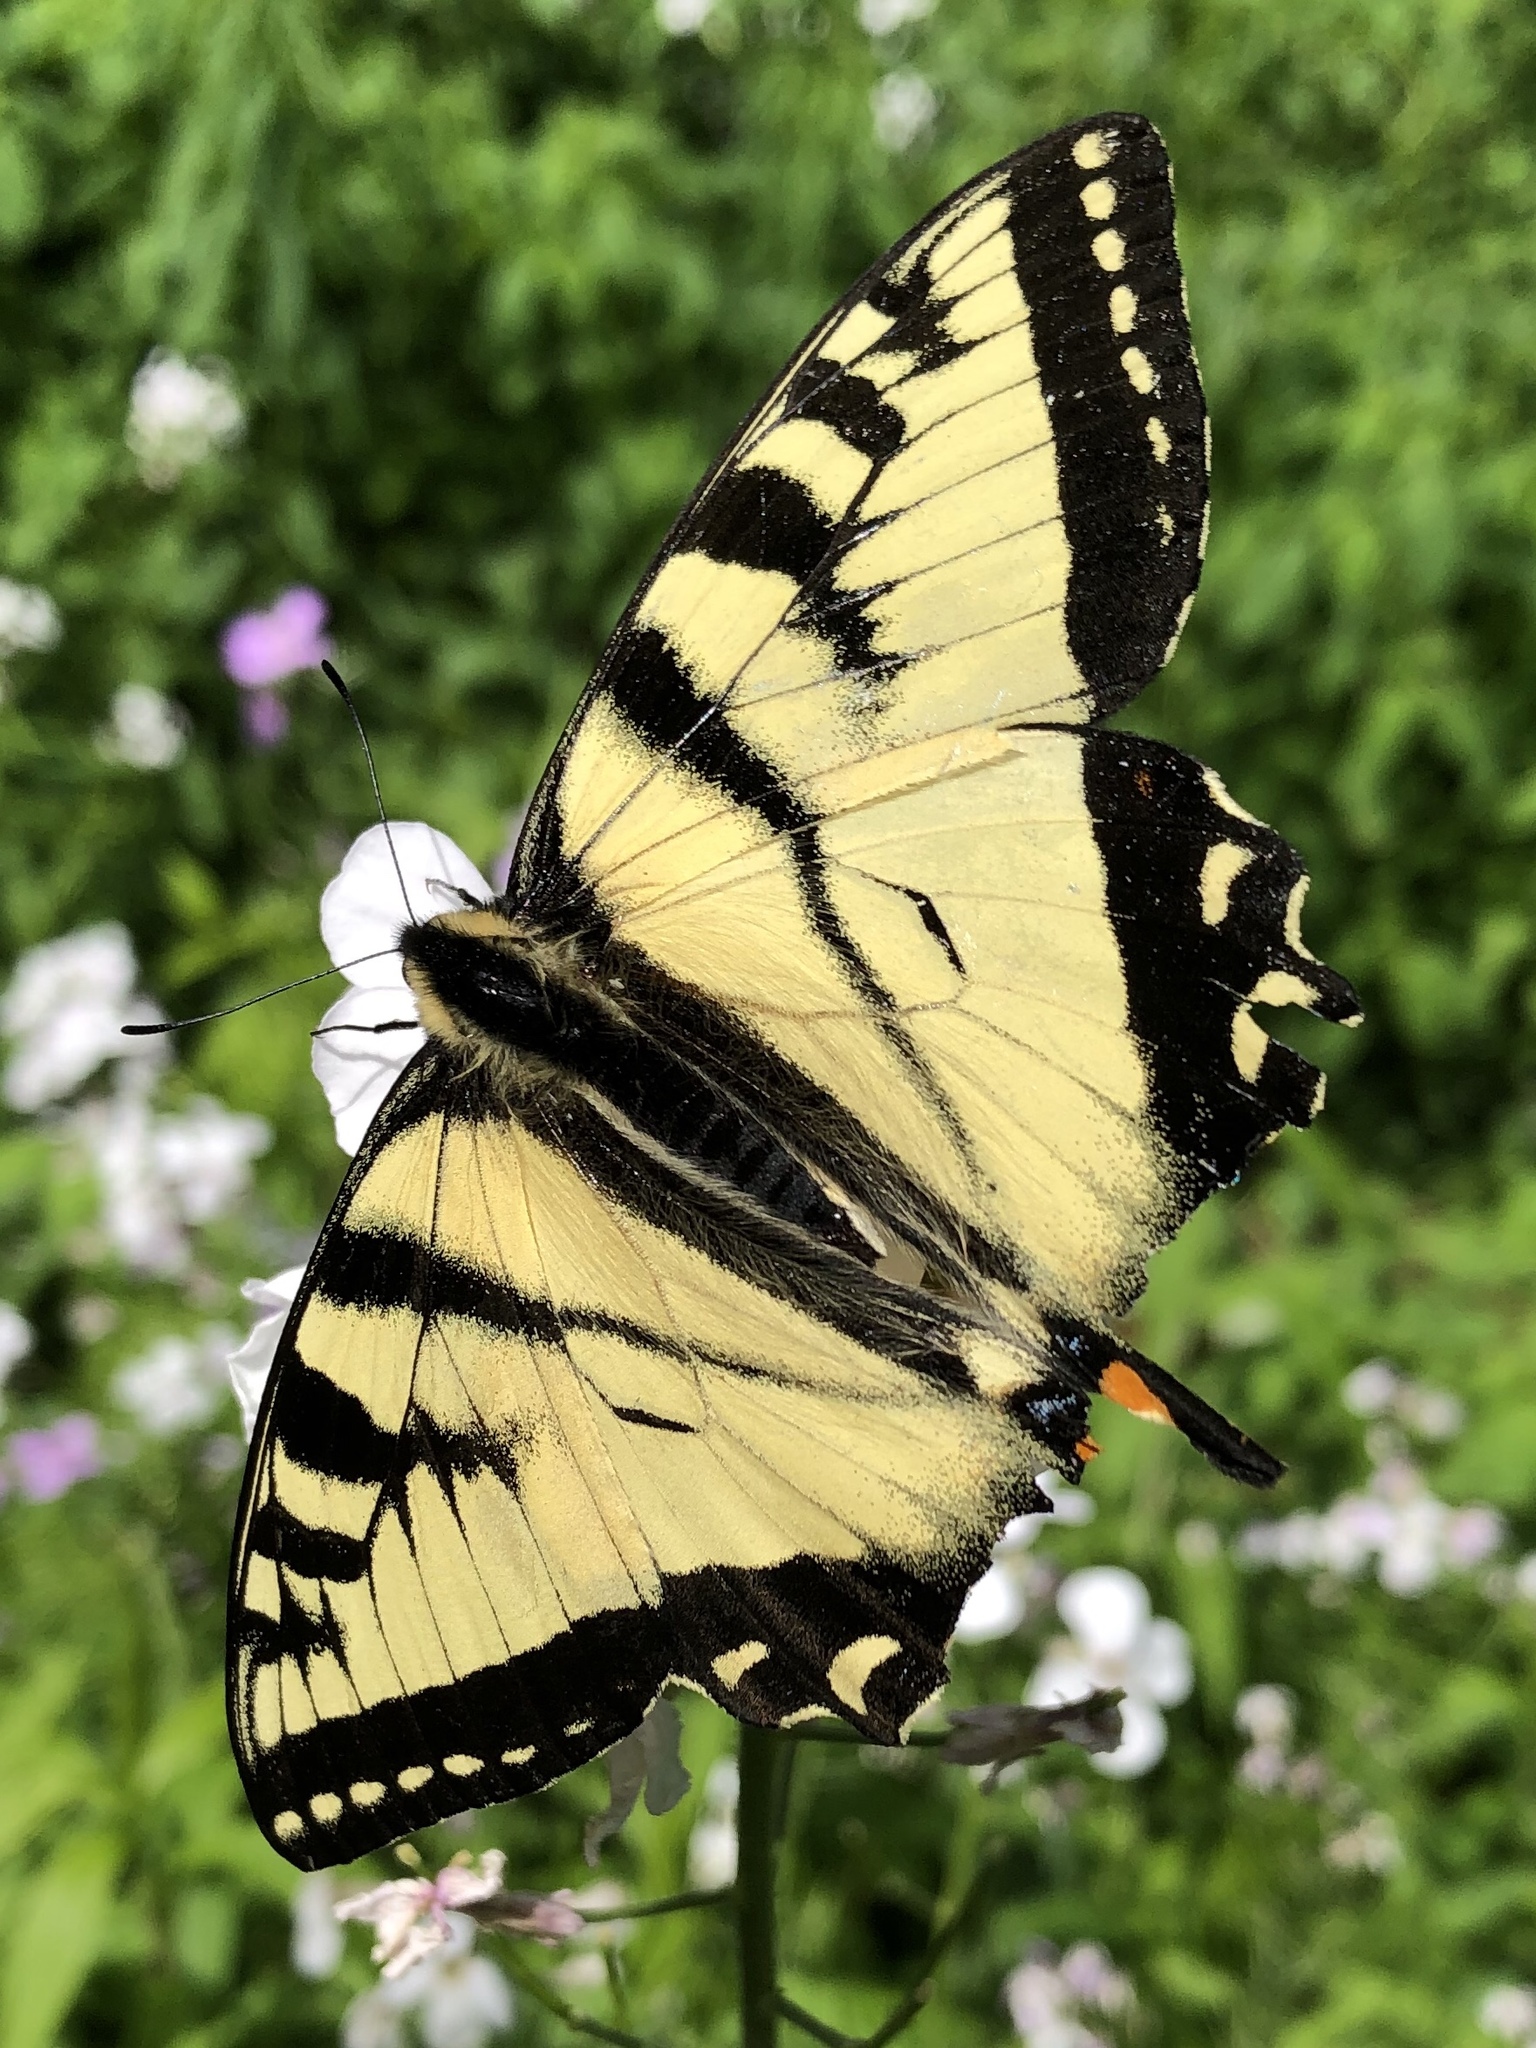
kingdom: Animalia
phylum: Arthropoda
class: Insecta
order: Lepidoptera
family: Papilionidae
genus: Papilio
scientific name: Papilio canadensis
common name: Canadian tiger swallowtail
